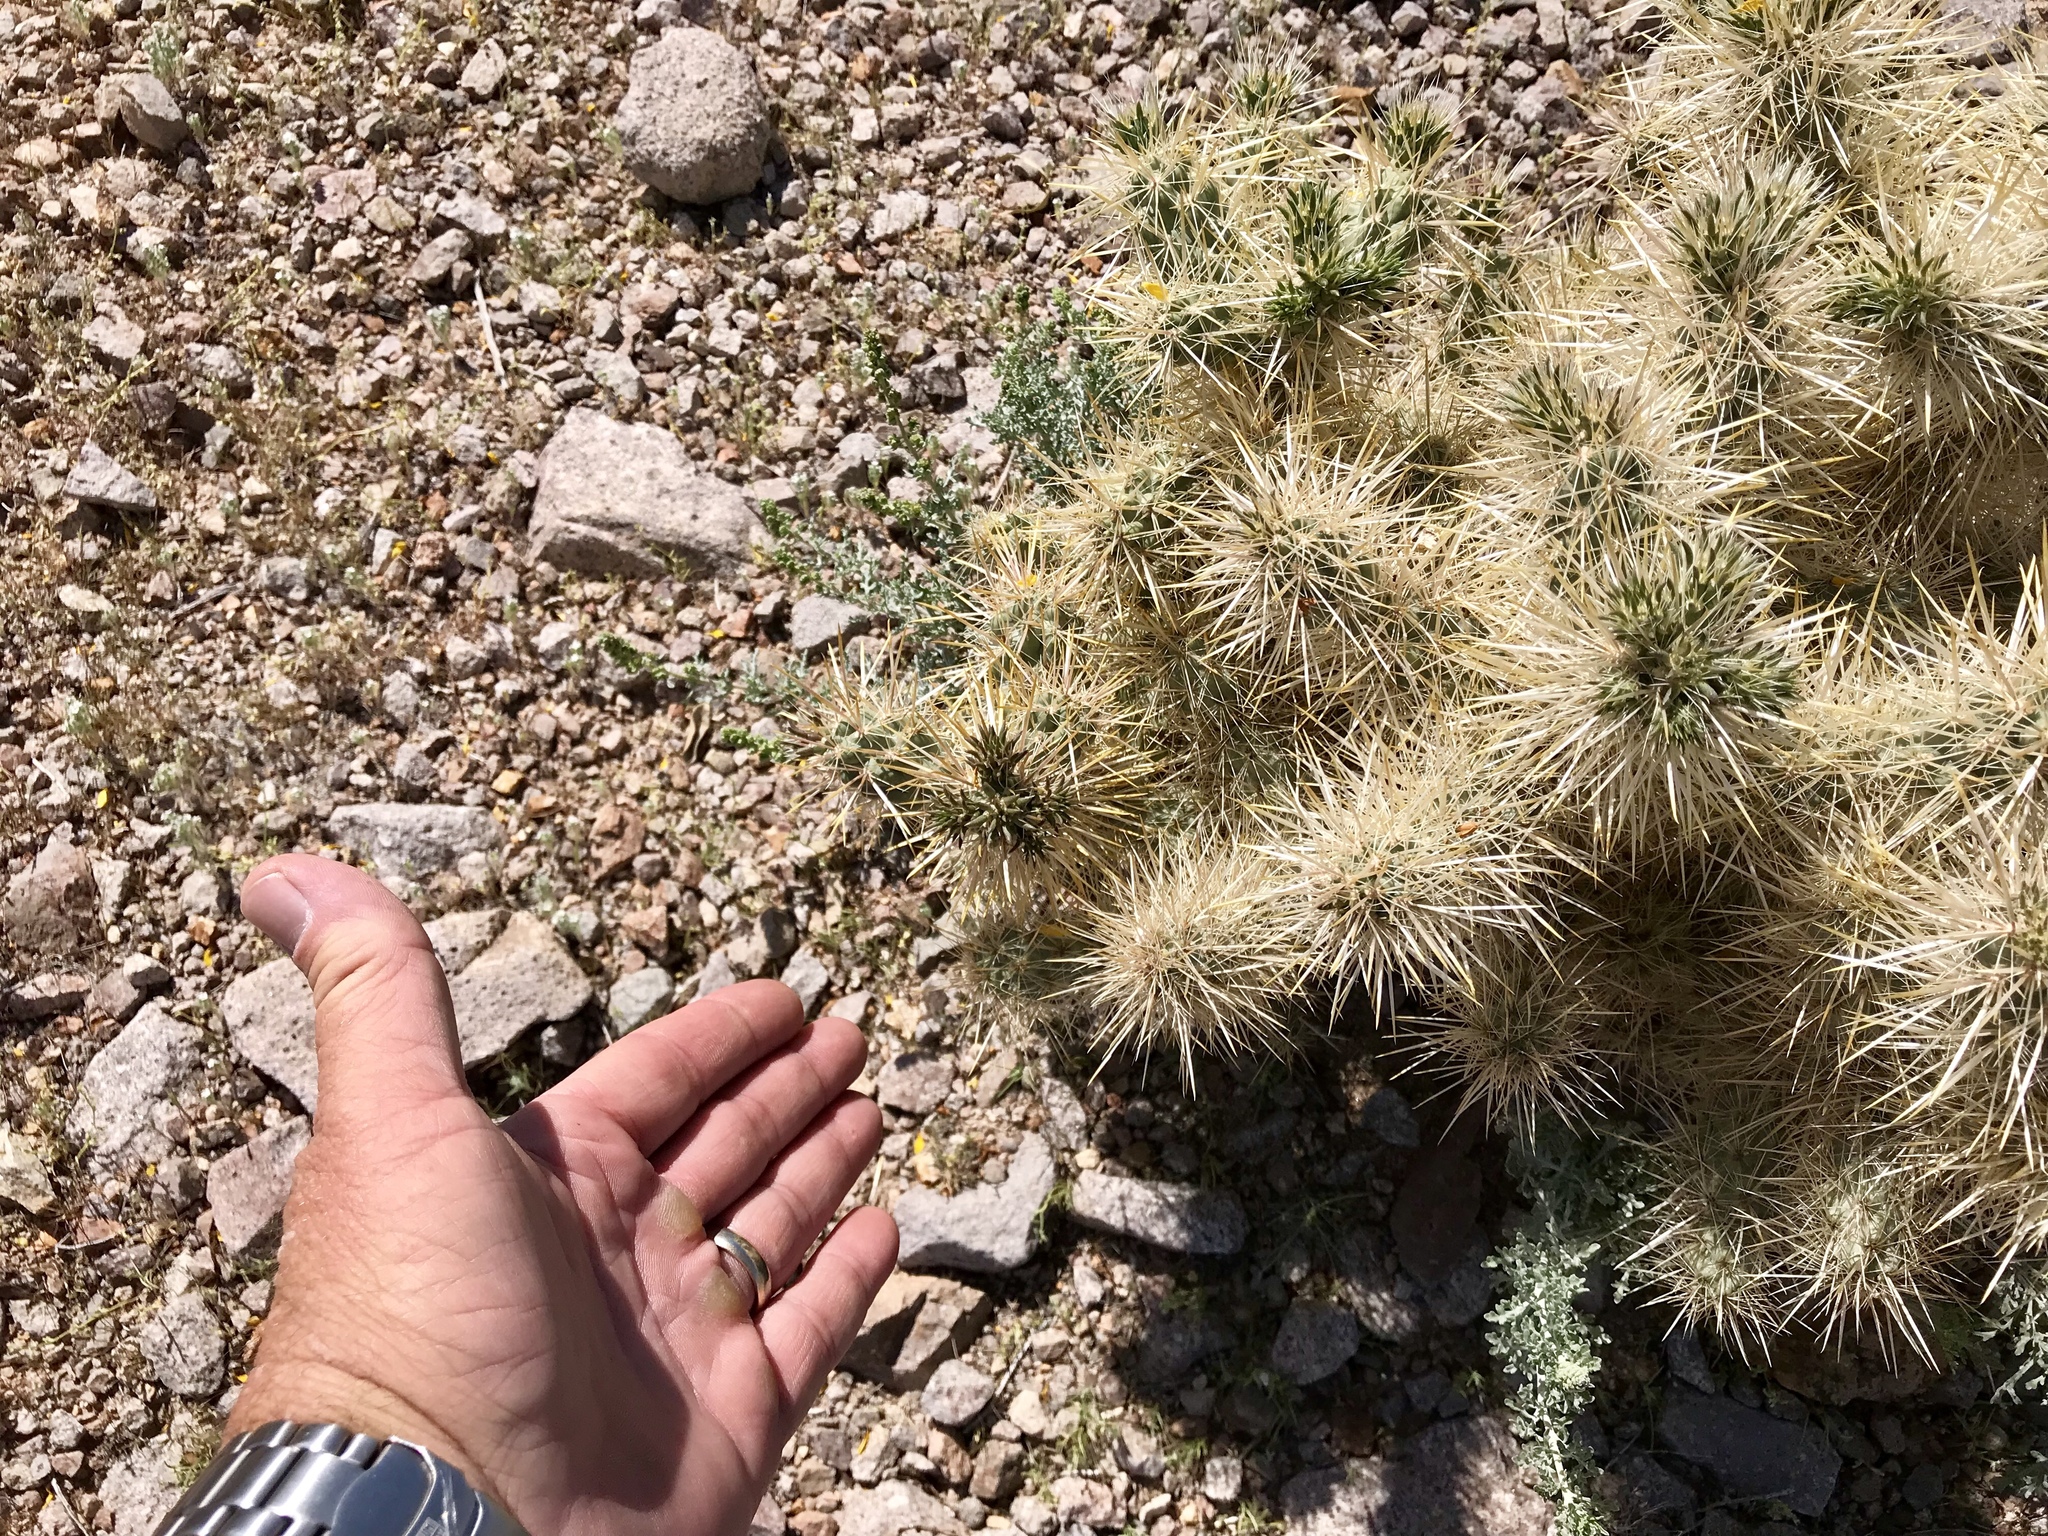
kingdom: Plantae
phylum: Tracheophyta
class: Magnoliopsida
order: Caryophyllales
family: Cactaceae
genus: Cylindropuntia
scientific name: Cylindropuntia echinocarpa
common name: Ground cholla
